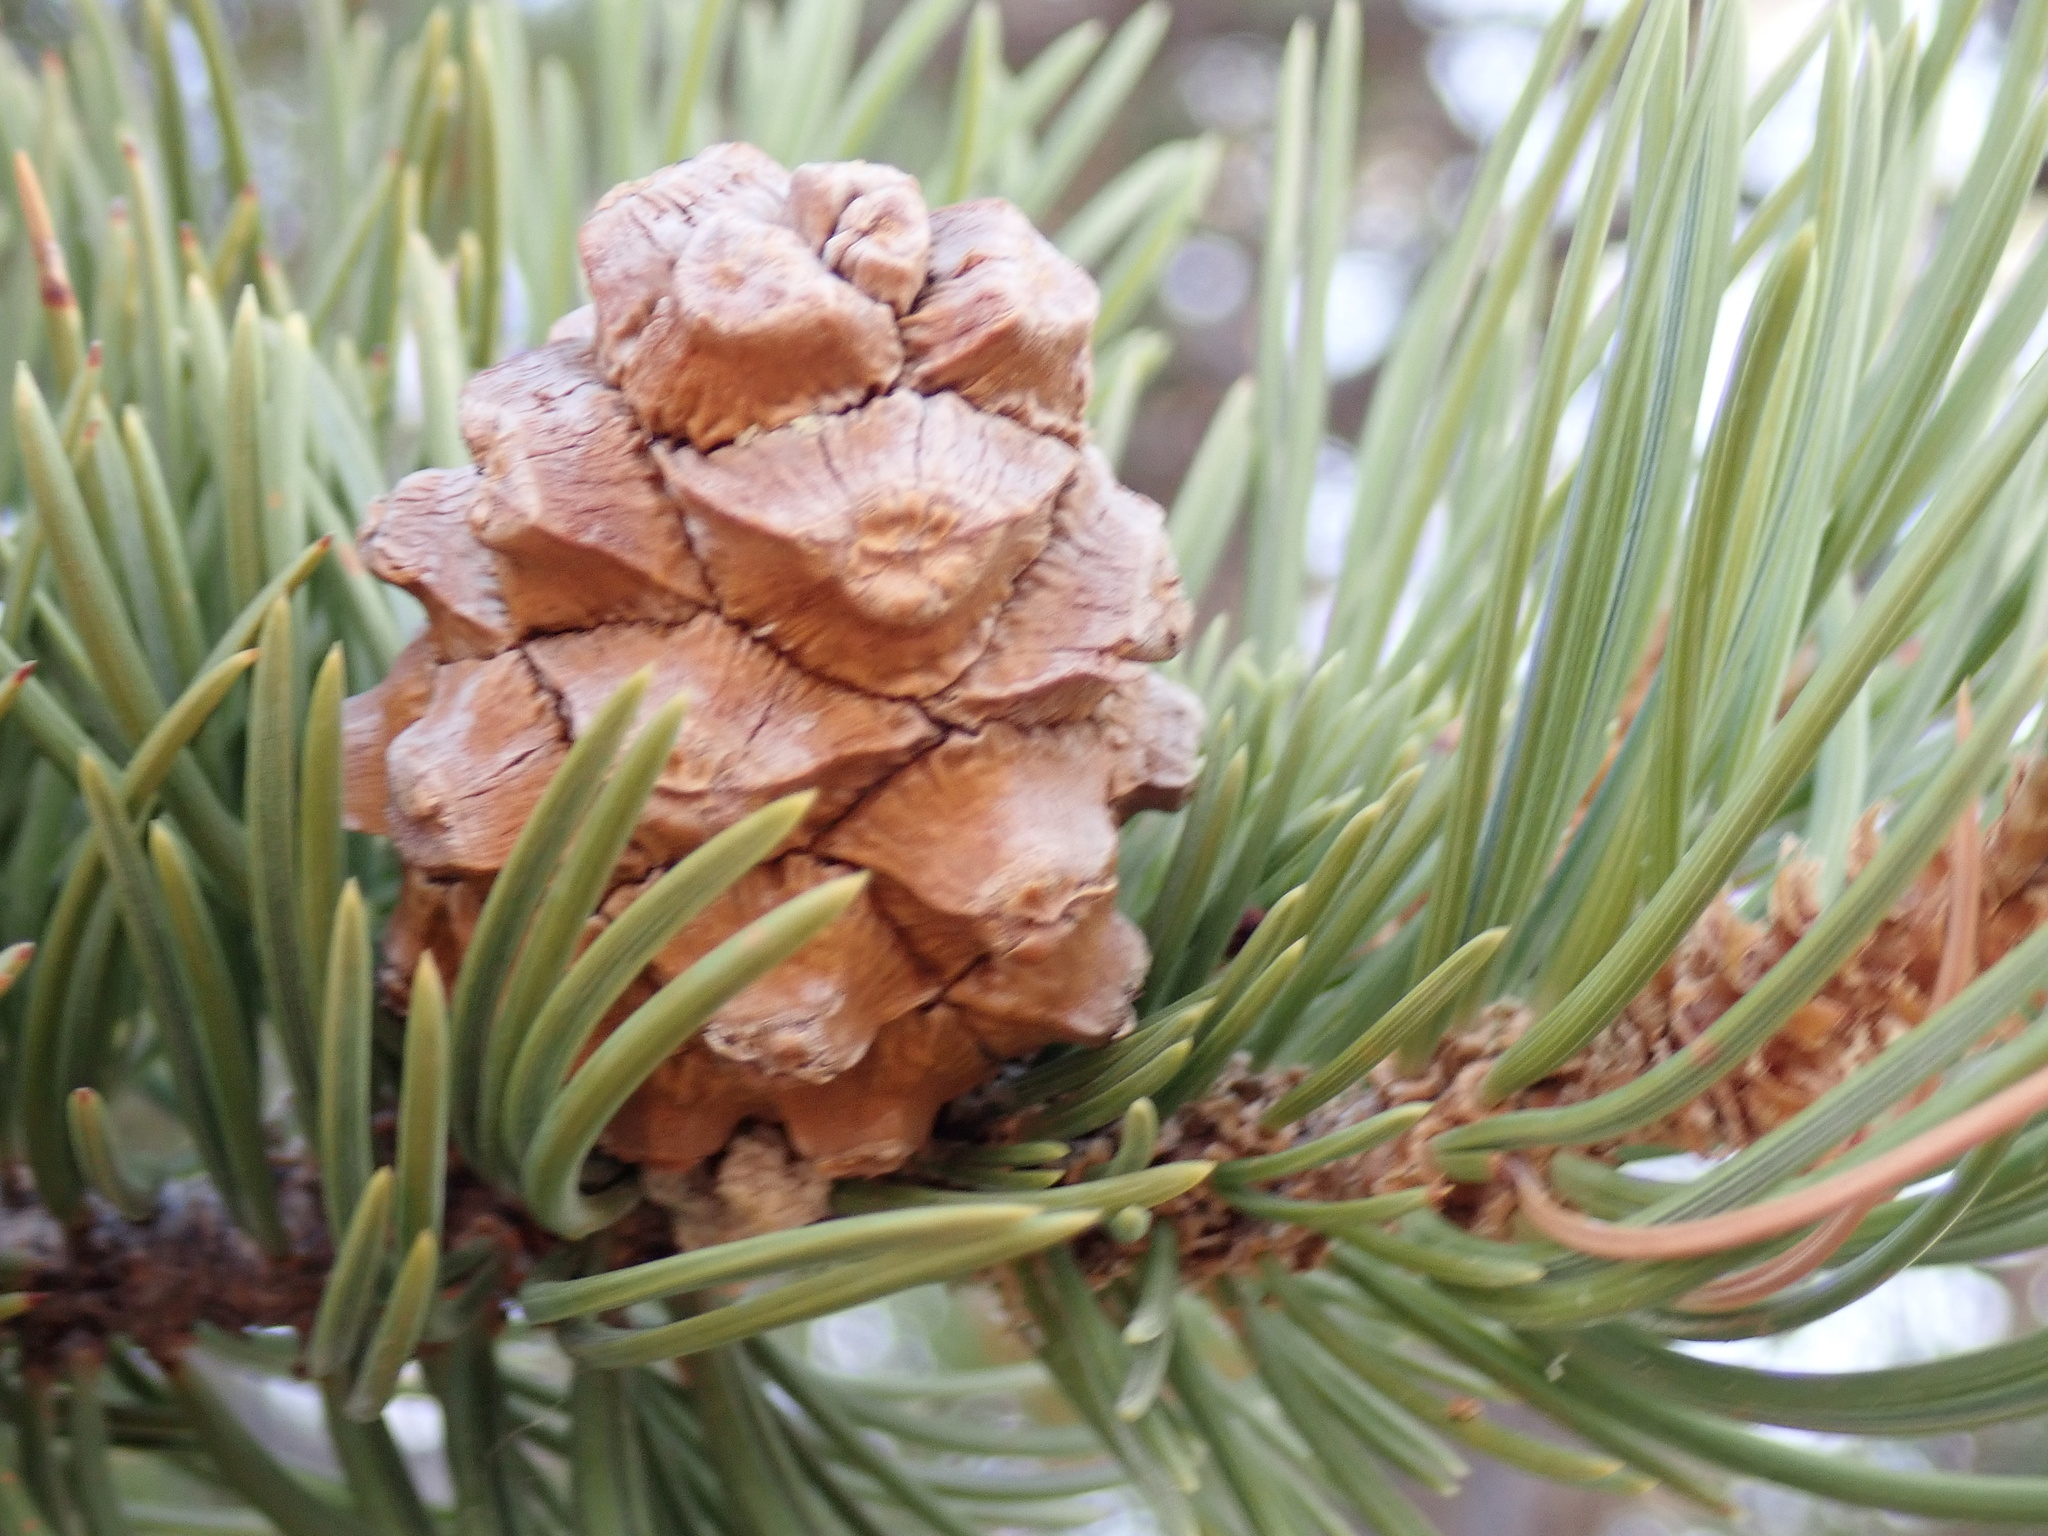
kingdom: Plantae
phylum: Tracheophyta
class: Pinopsida
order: Pinales
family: Pinaceae
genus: Pinus
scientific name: Pinus edulis
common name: Colorado pinyon
